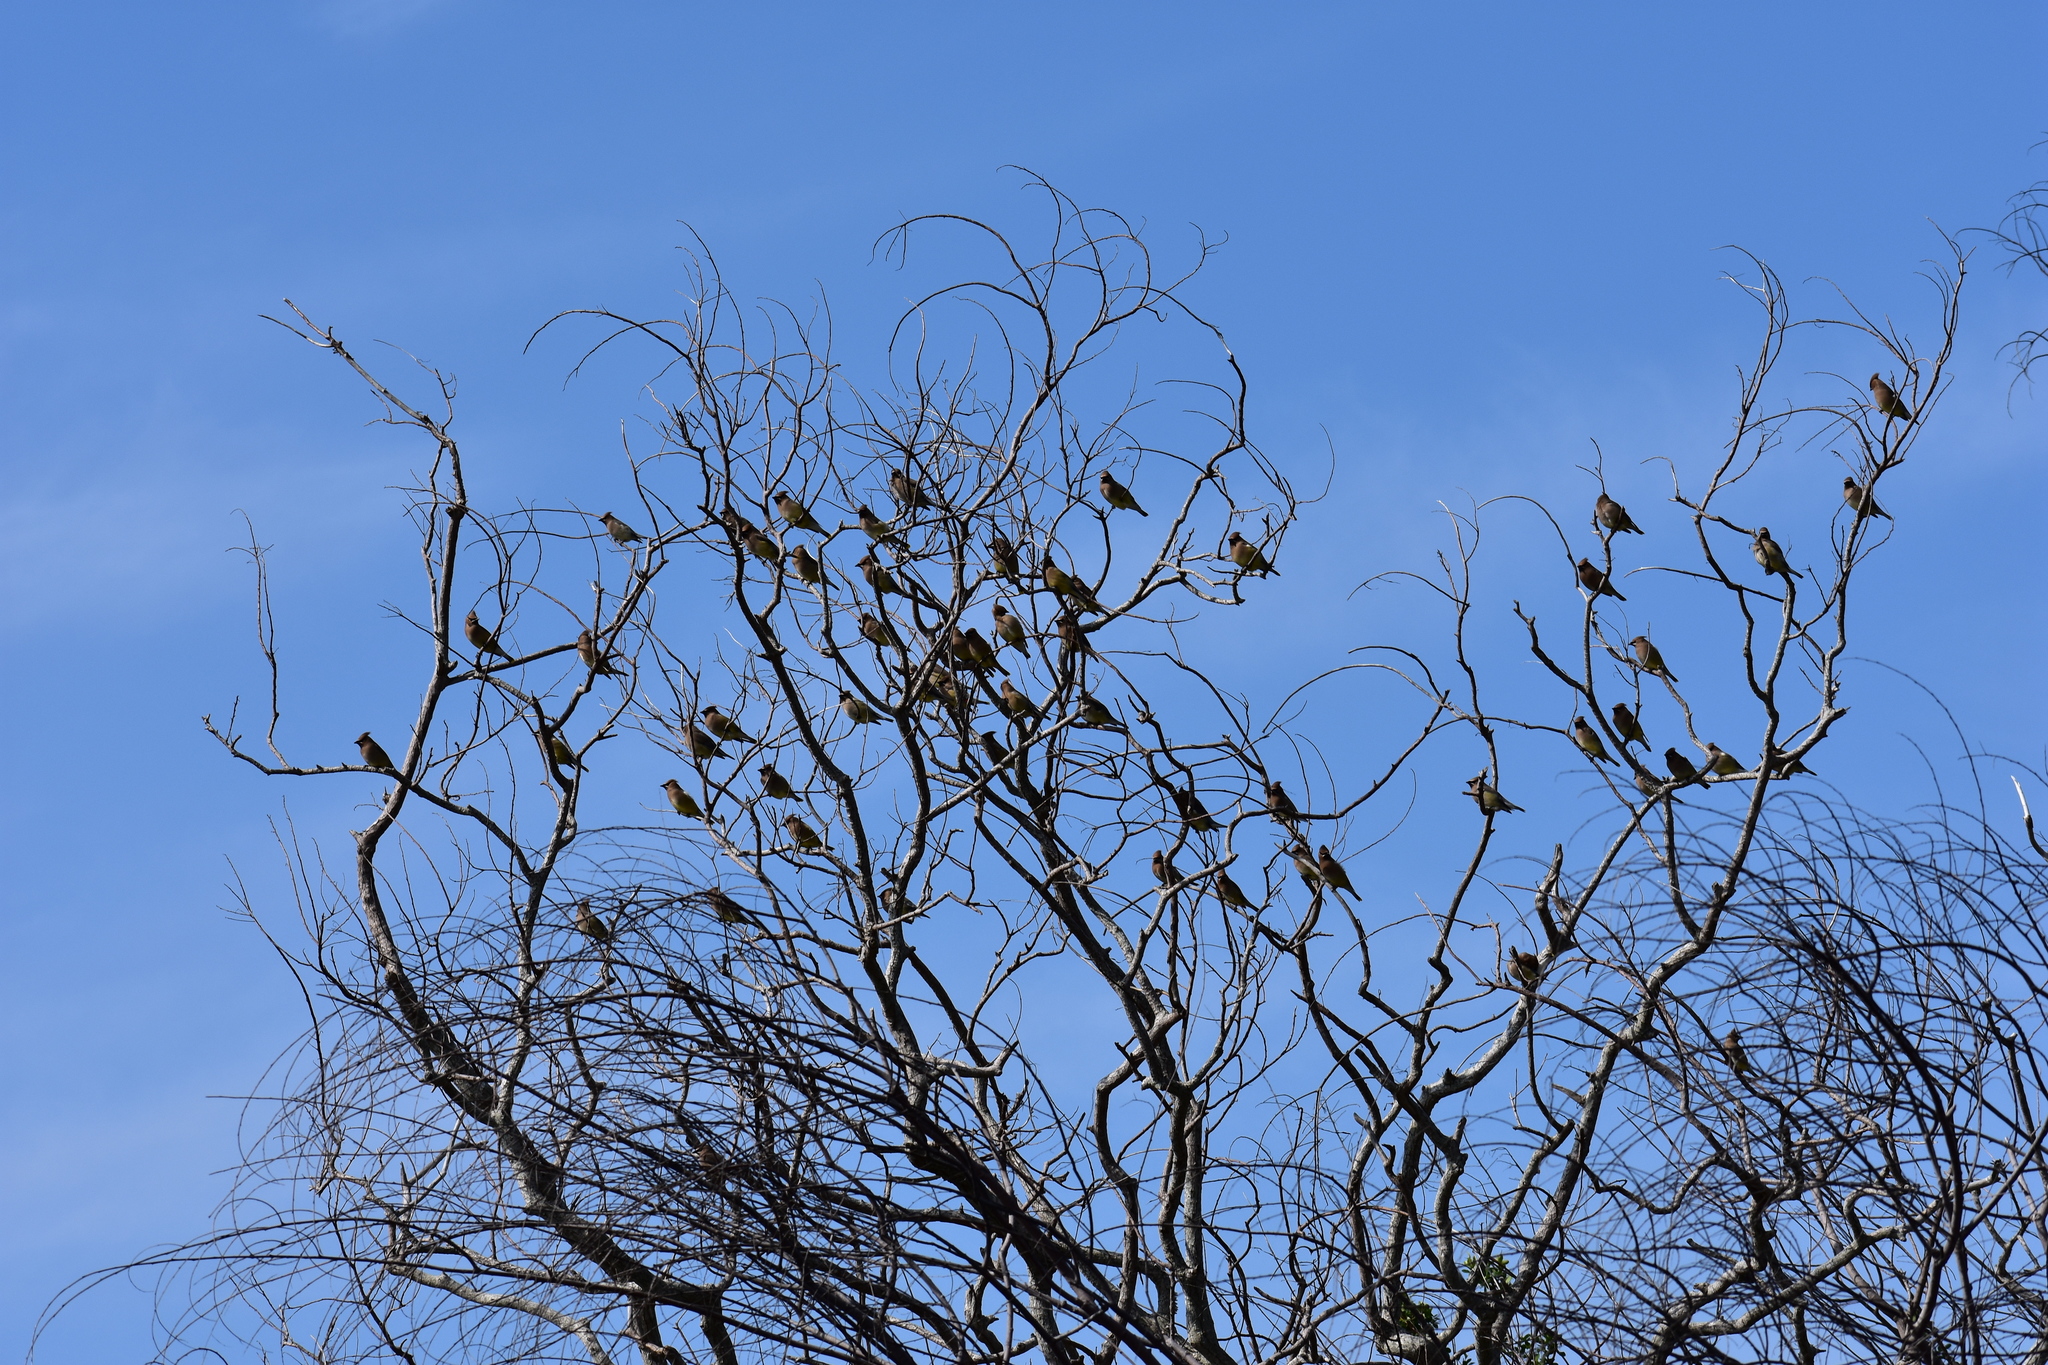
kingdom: Animalia
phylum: Chordata
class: Aves
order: Passeriformes
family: Bombycillidae
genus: Bombycilla
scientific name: Bombycilla cedrorum
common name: Cedar waxwing
